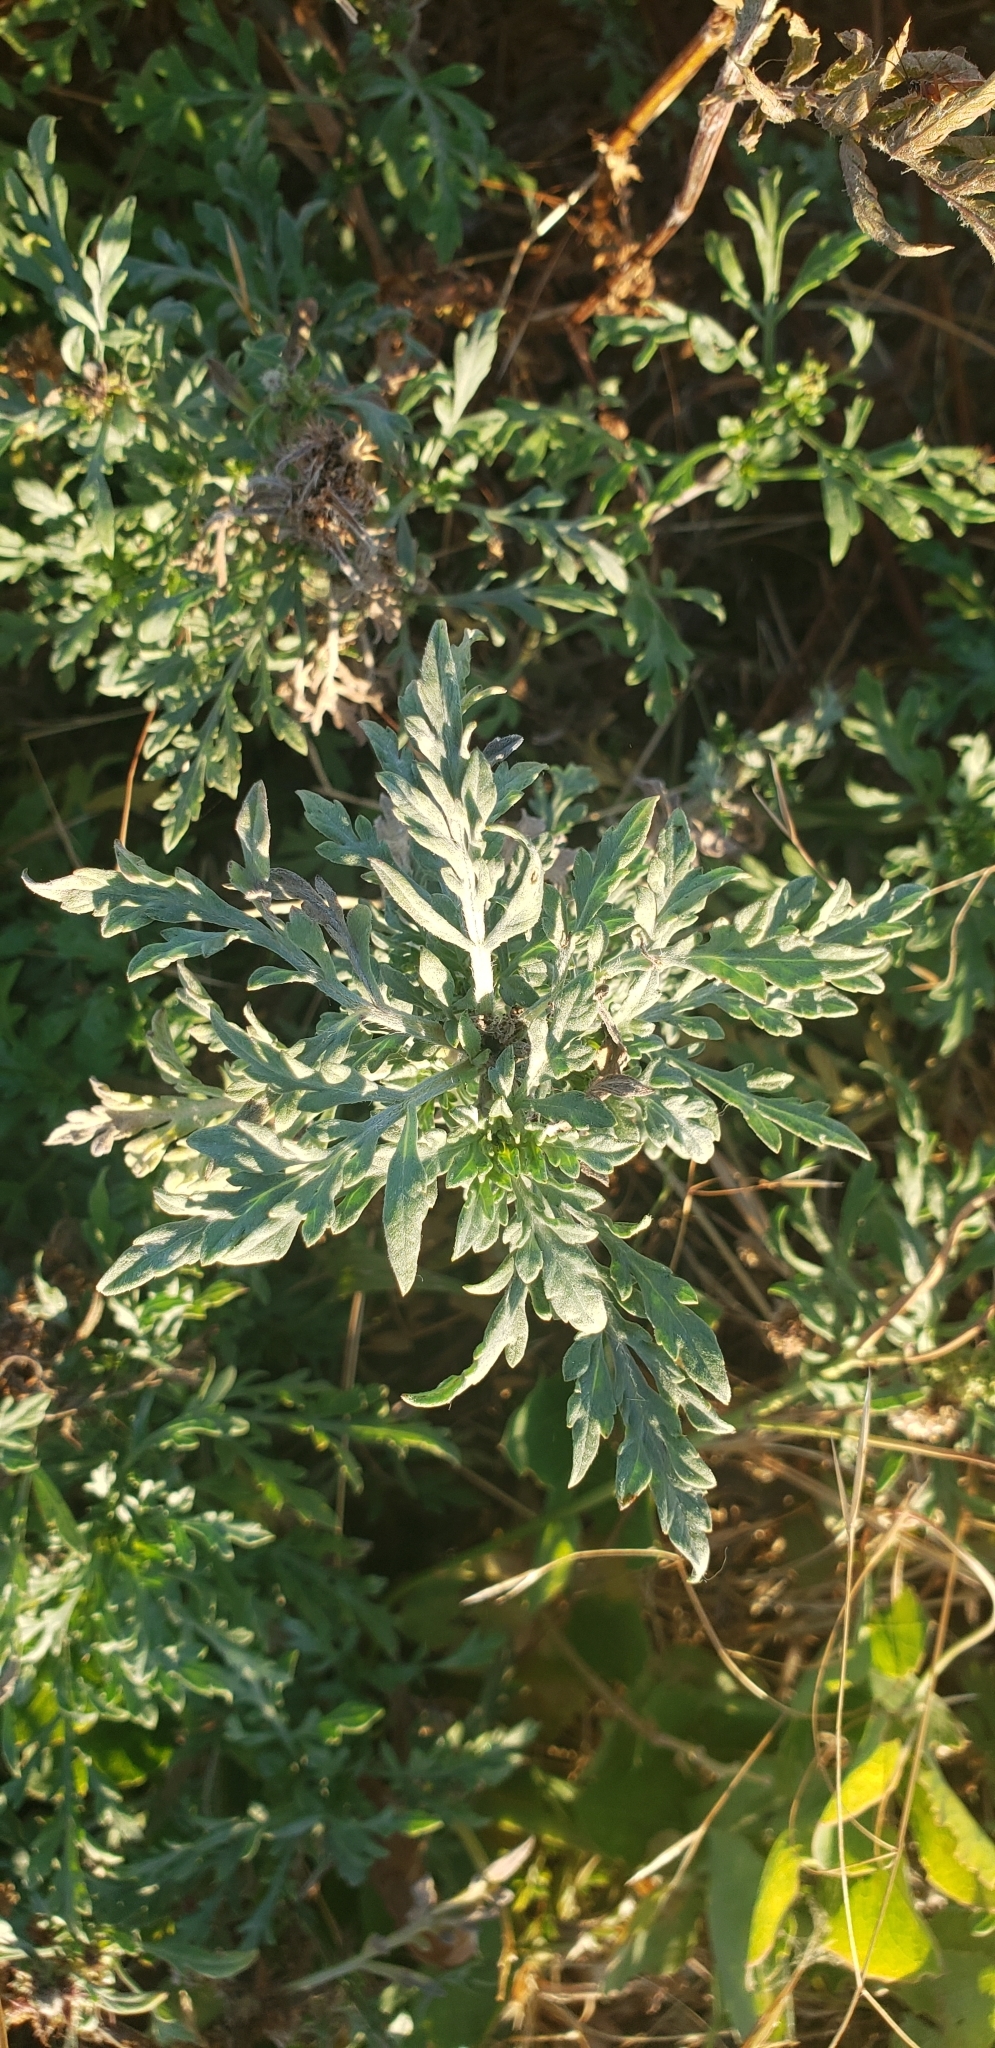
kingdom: Plantae
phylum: Tracheophyta
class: Magnoliopsida
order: Asterales
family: Asteraceae
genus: Ambrosia
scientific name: Ambrosia chamissonis
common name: Beachbur
